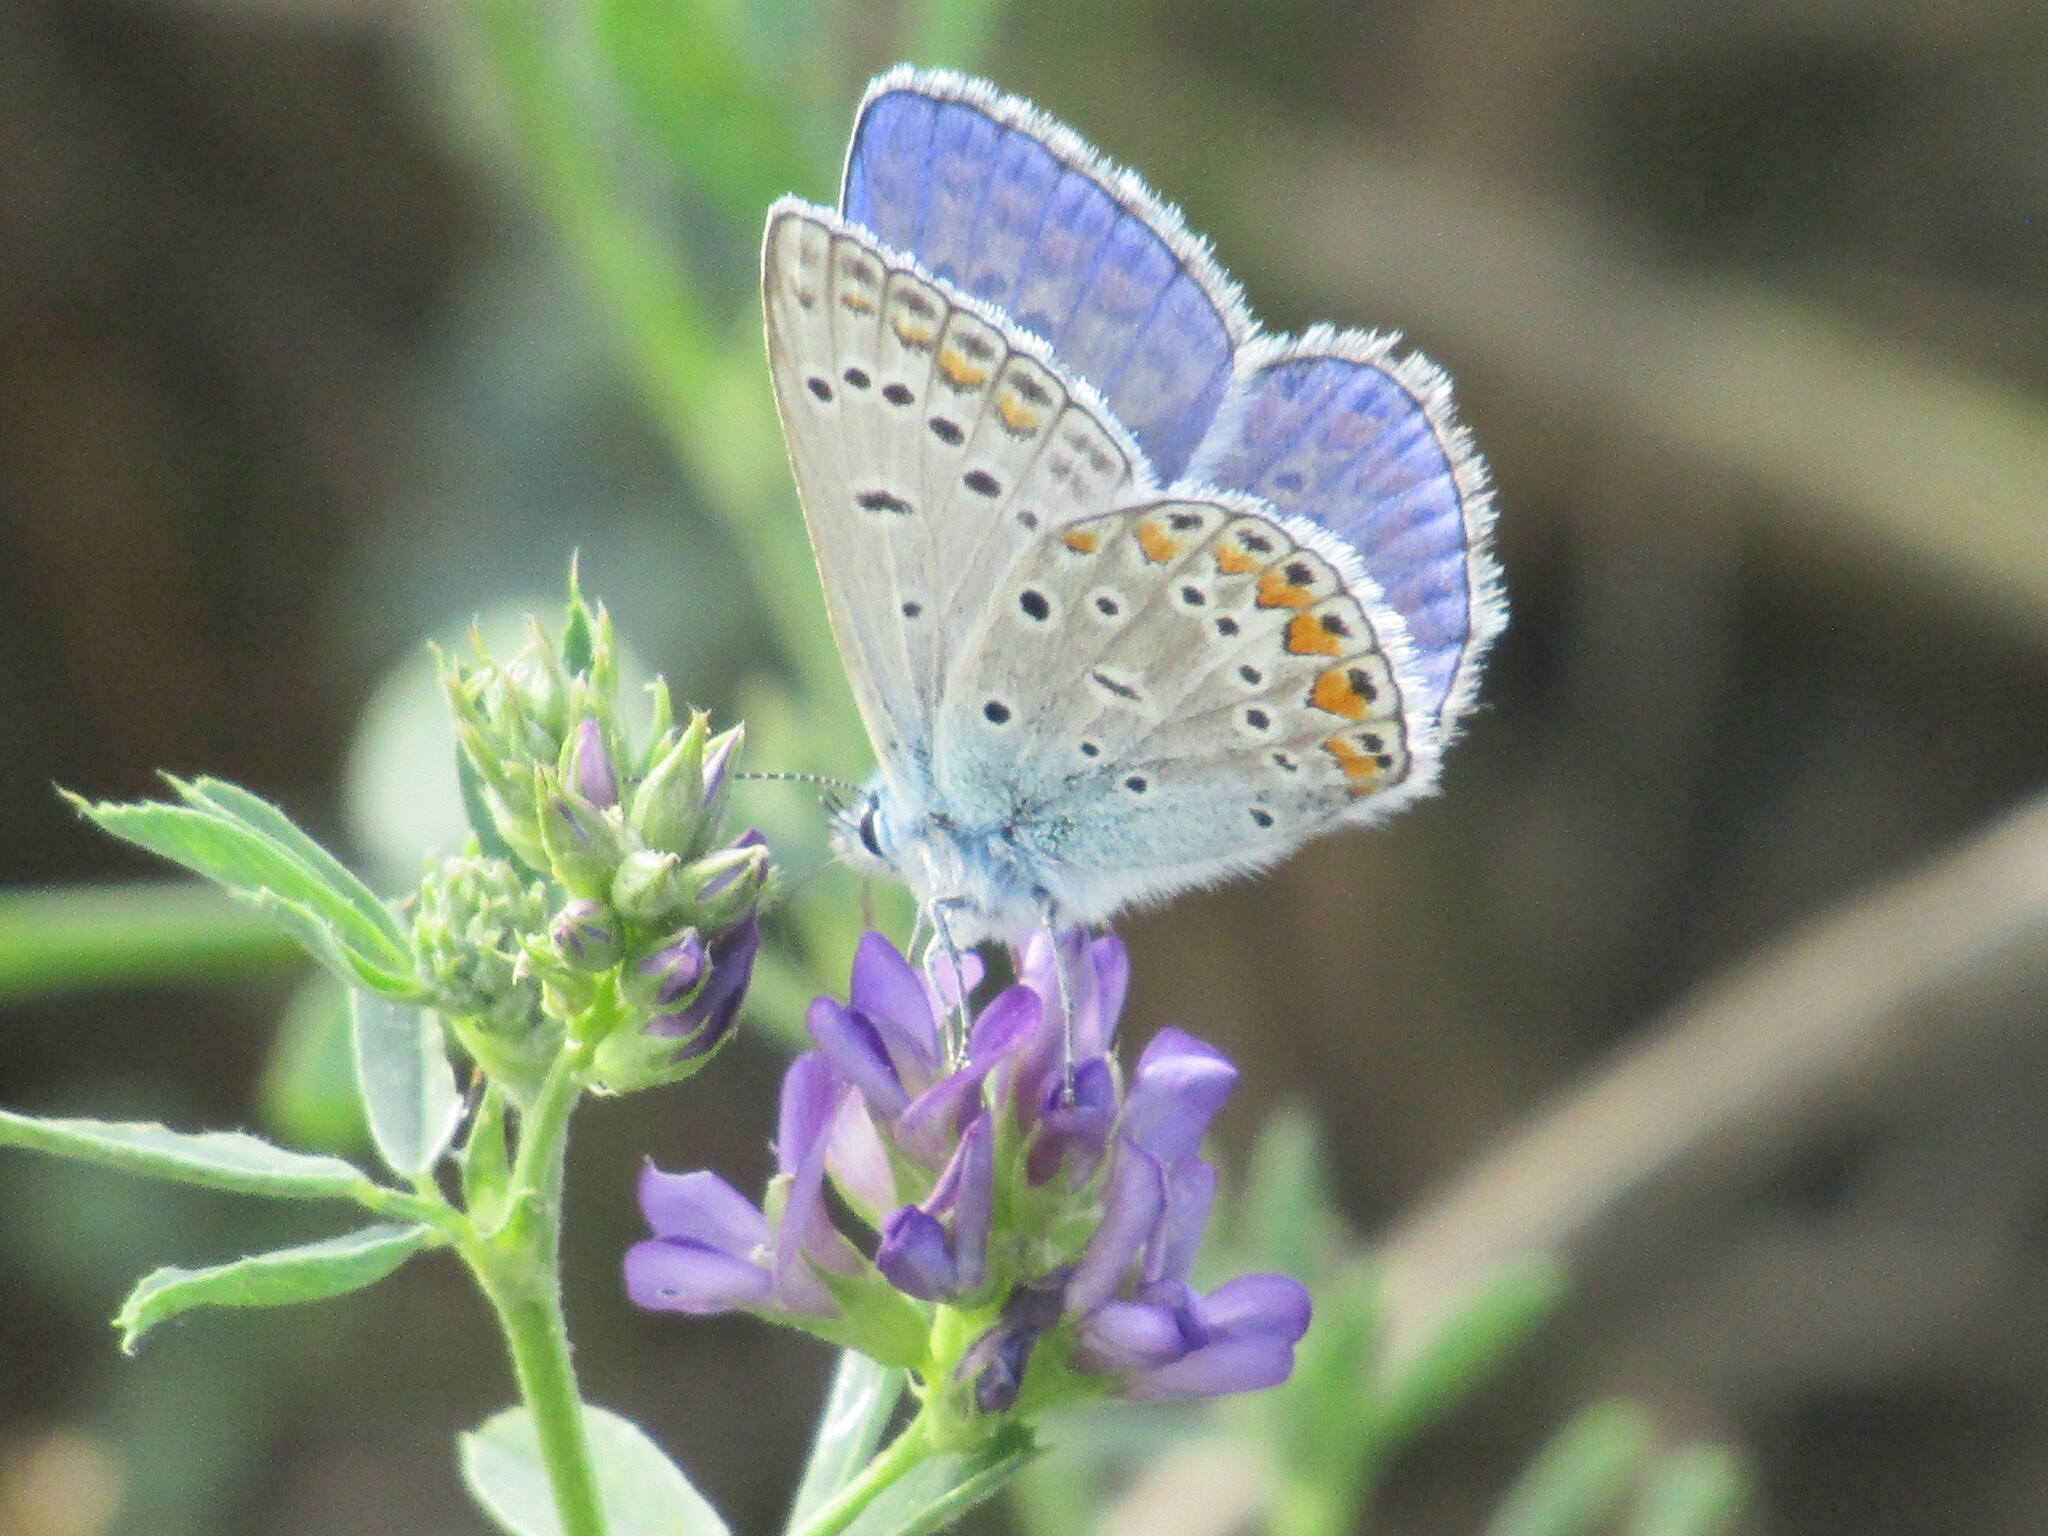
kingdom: Animalia
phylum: Arthropoda
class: Insecta
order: Lepidoptera
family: Lycaenidae
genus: Polyommatus
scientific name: Polyommatus icarus
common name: Common blue
